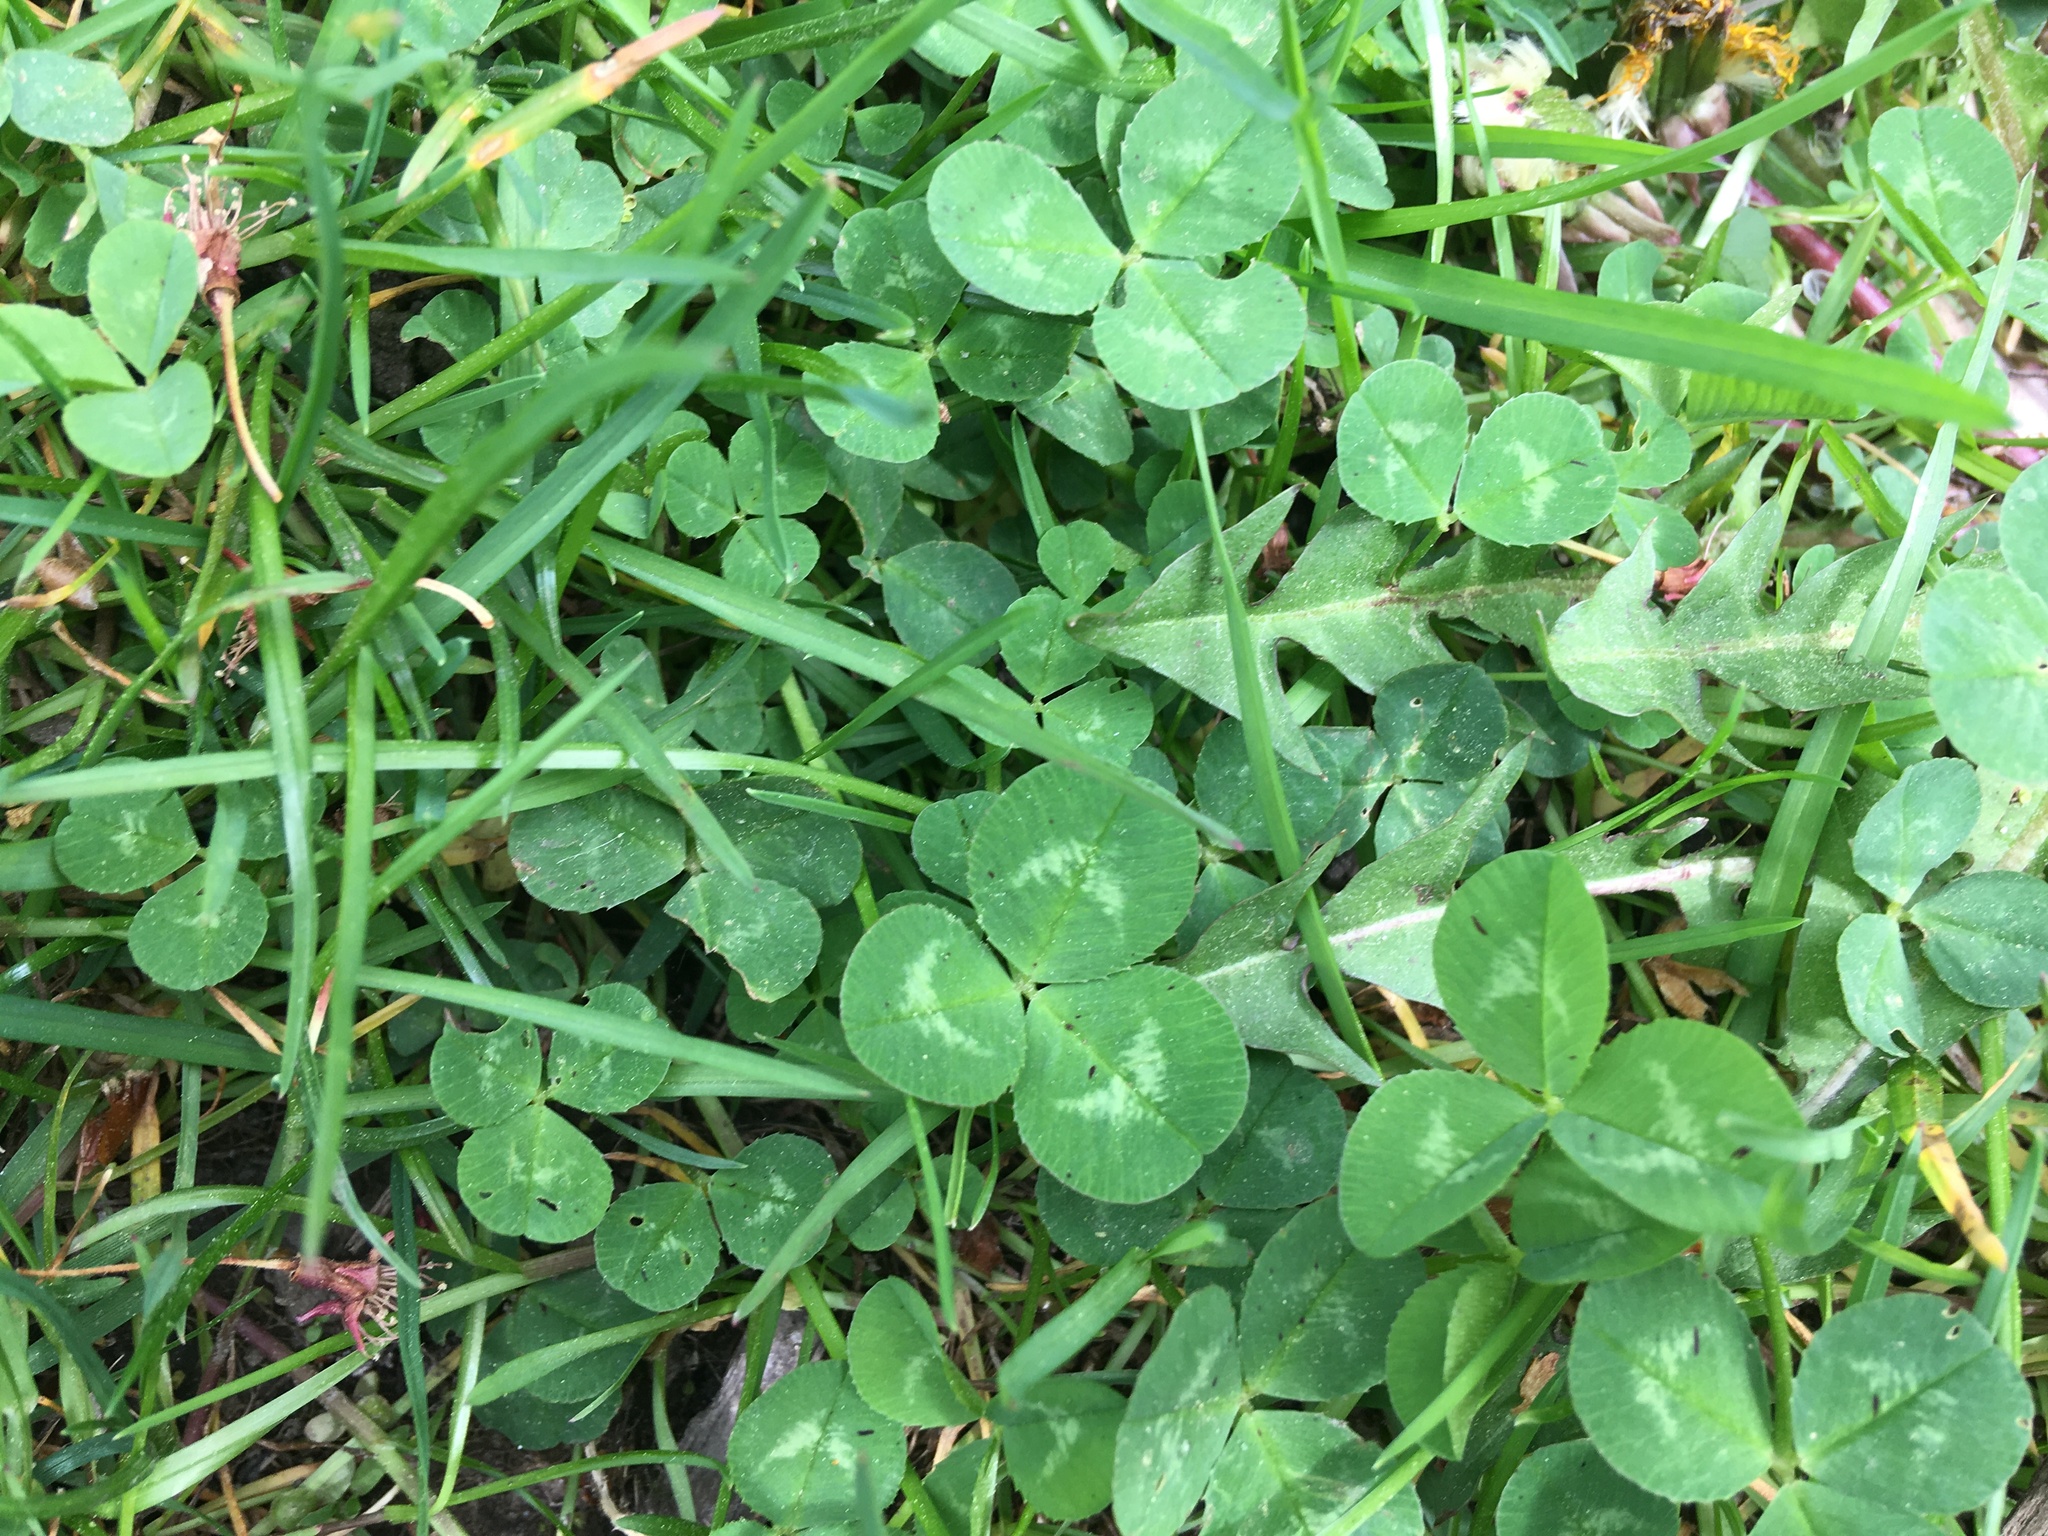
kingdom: Plantae
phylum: Tracheophyta
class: Magnoliopsida
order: Fabales
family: Fabaceae
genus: Trifolium
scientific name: Trifolium repens
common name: White clover
